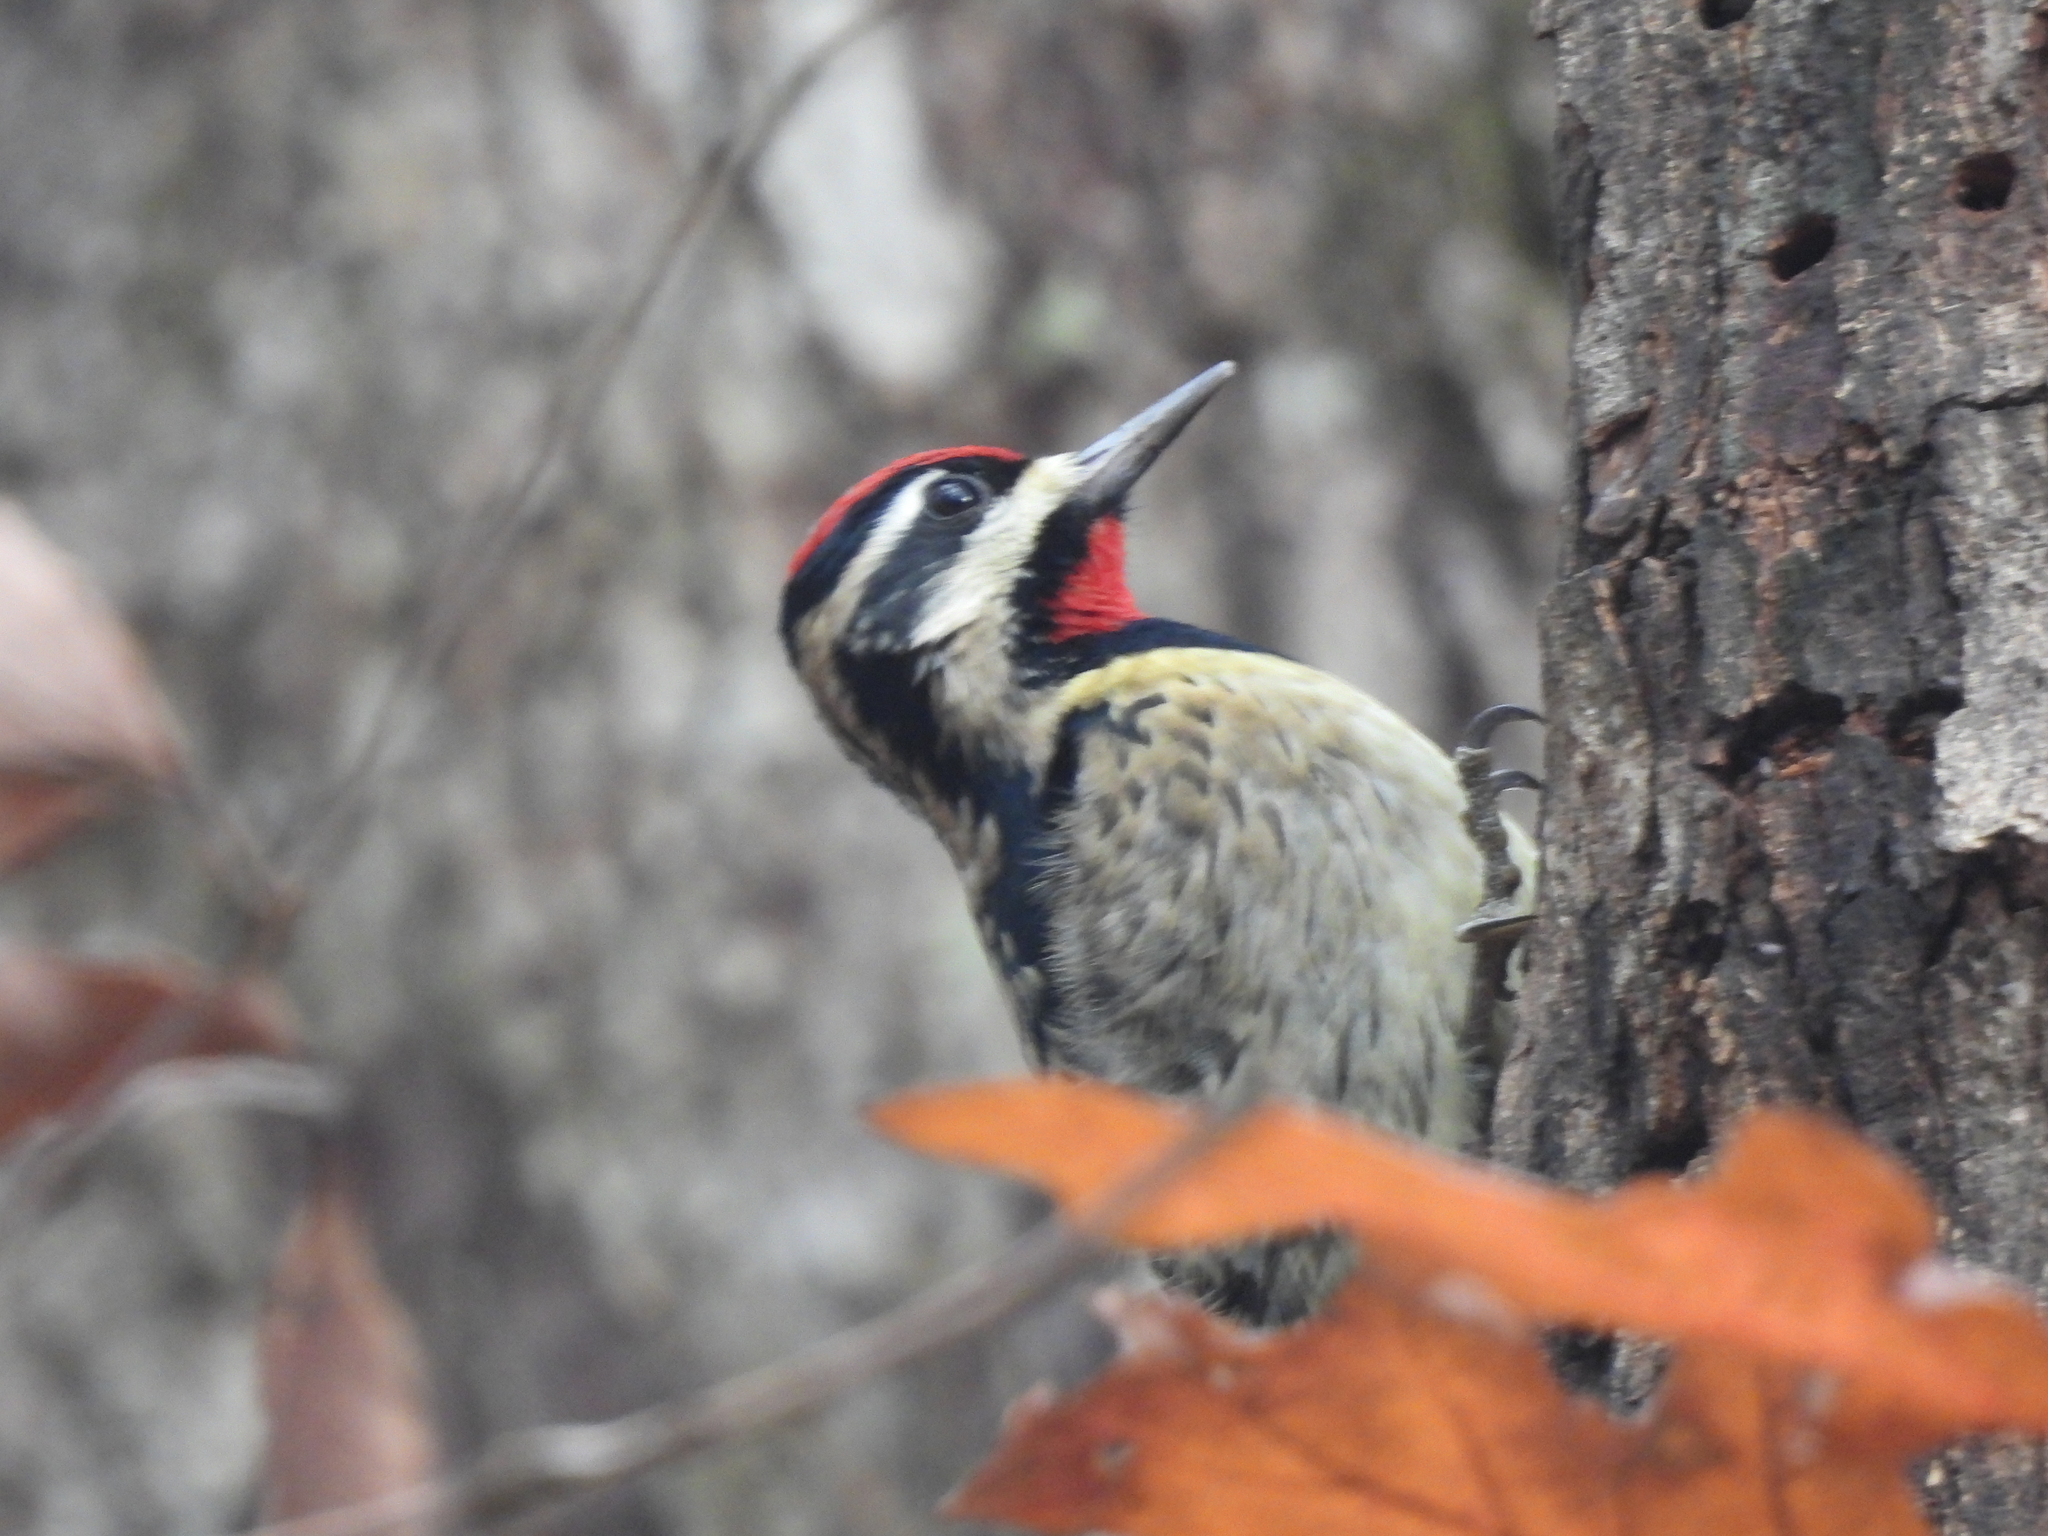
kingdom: Animalia
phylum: Chordata
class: Aves
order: Piciformes
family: Picidae
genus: Sphyrapicus
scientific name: Sphyrapicus varius
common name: Yellow-bellied sapsucker
